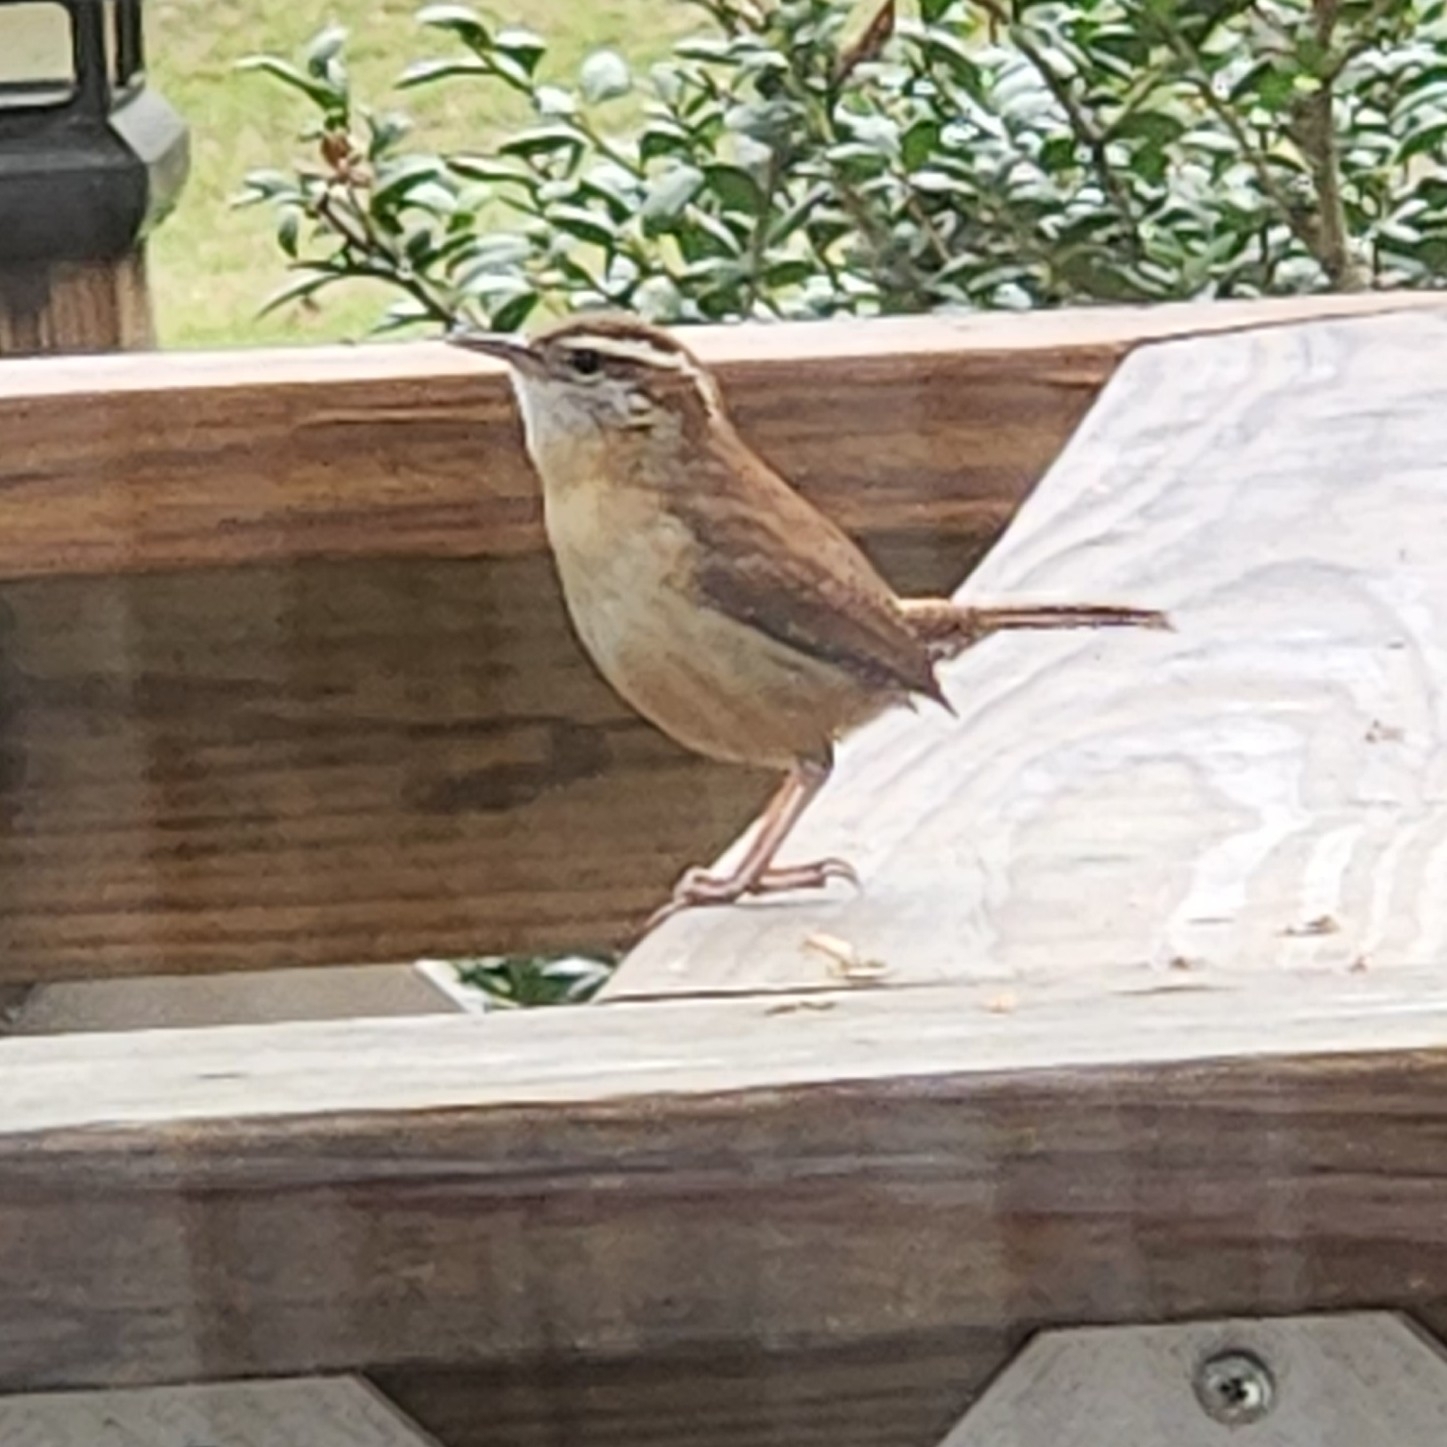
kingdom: Animalia
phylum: Chordata
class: Aves
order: Passeriformes
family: Troglodytidae
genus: Thryothorus
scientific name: Thryothorus ludovicianus
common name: Carolina wren
